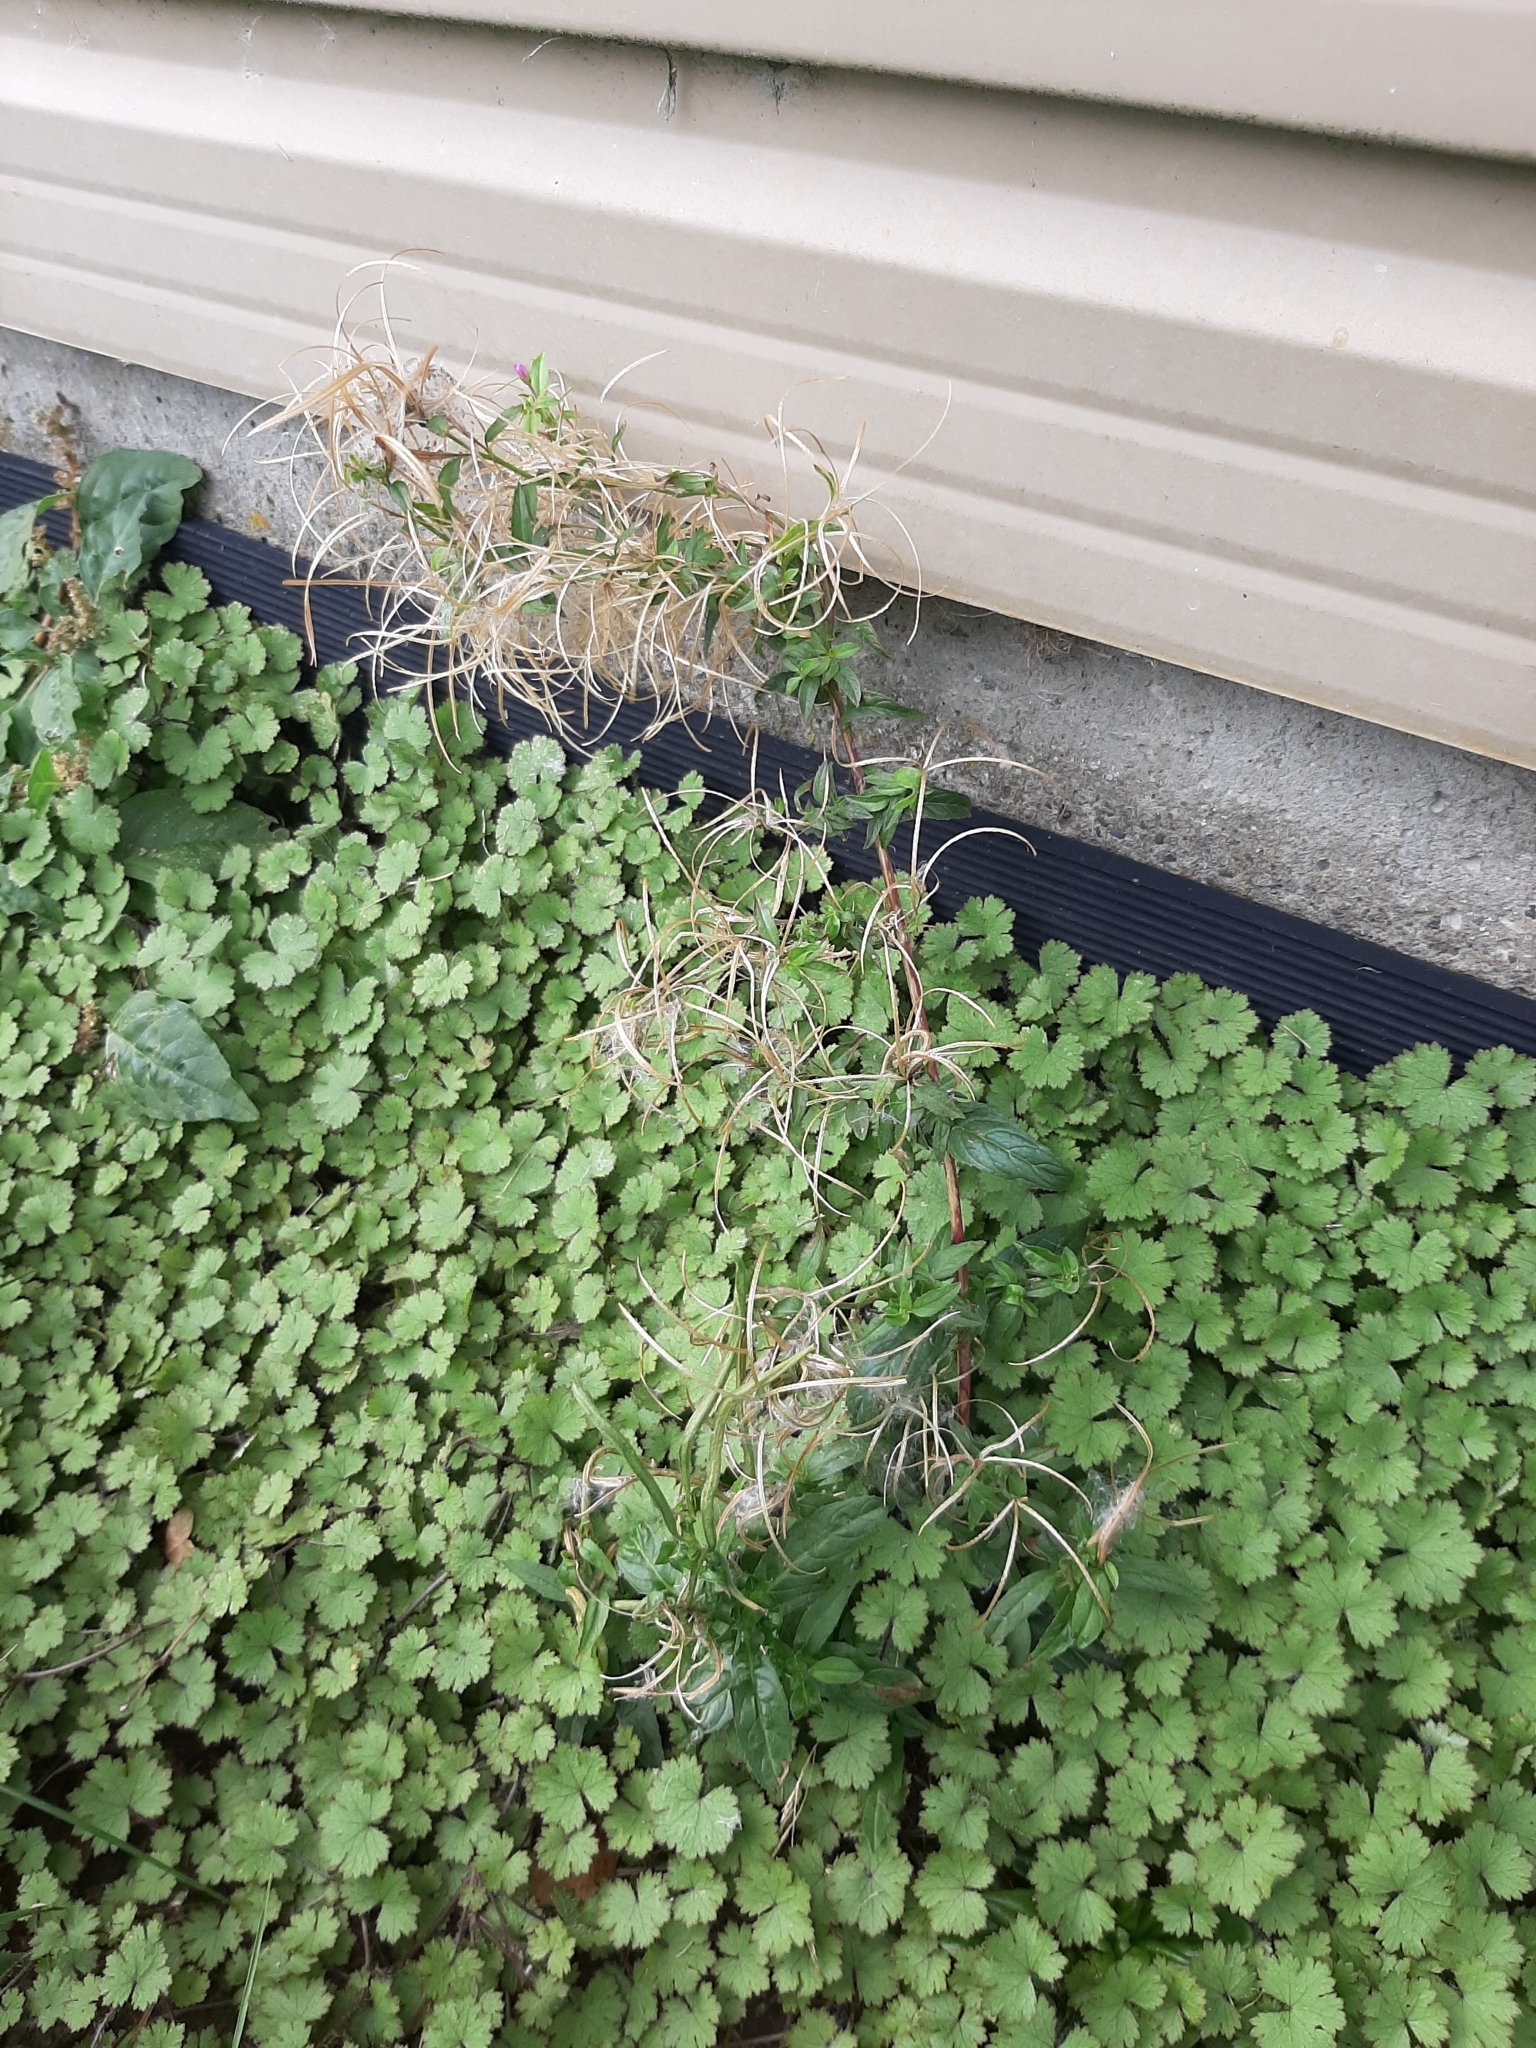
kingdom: Plantae
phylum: Tracheophyta
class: Magnoliopsida
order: Myrtales
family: Onagraceae
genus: Epilobium
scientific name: Epilobium ciliatum
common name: American willowherb
